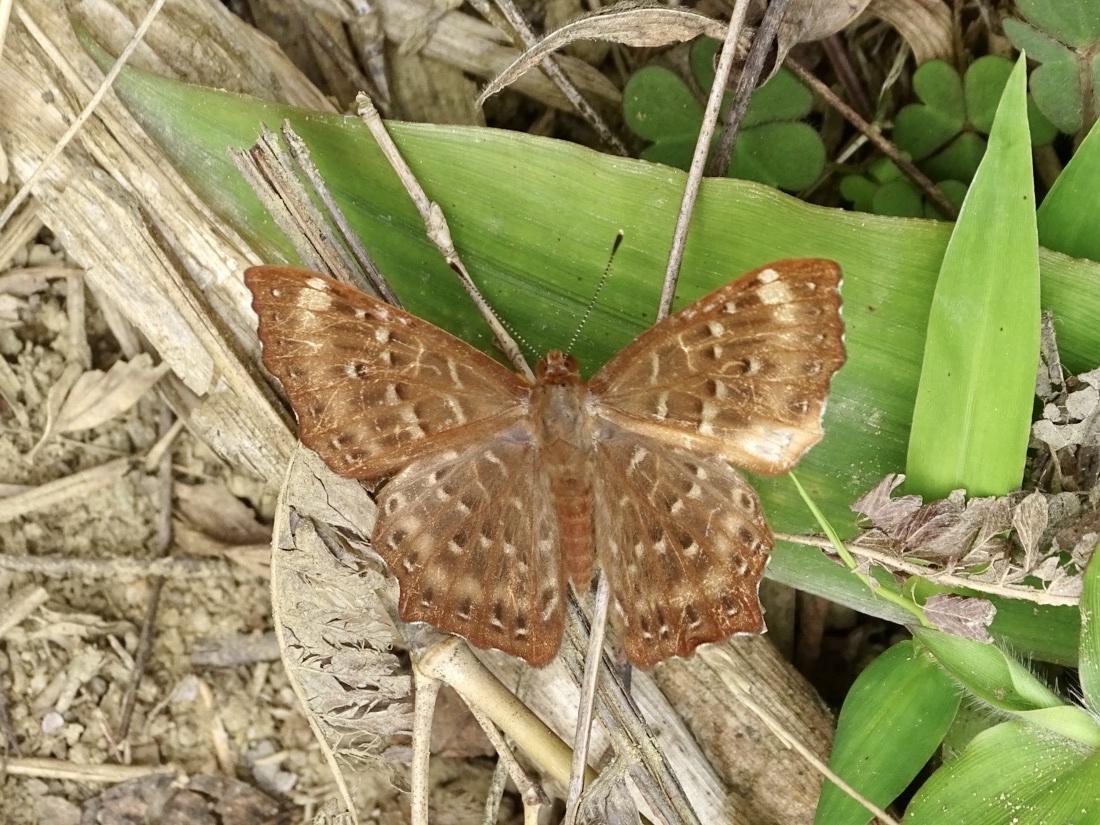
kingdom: Animalia
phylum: Arthropoda
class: Insecta
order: Lepidoptera
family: Riodinidae
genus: Zemeros
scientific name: Zemeros flegyas
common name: Punchinello
